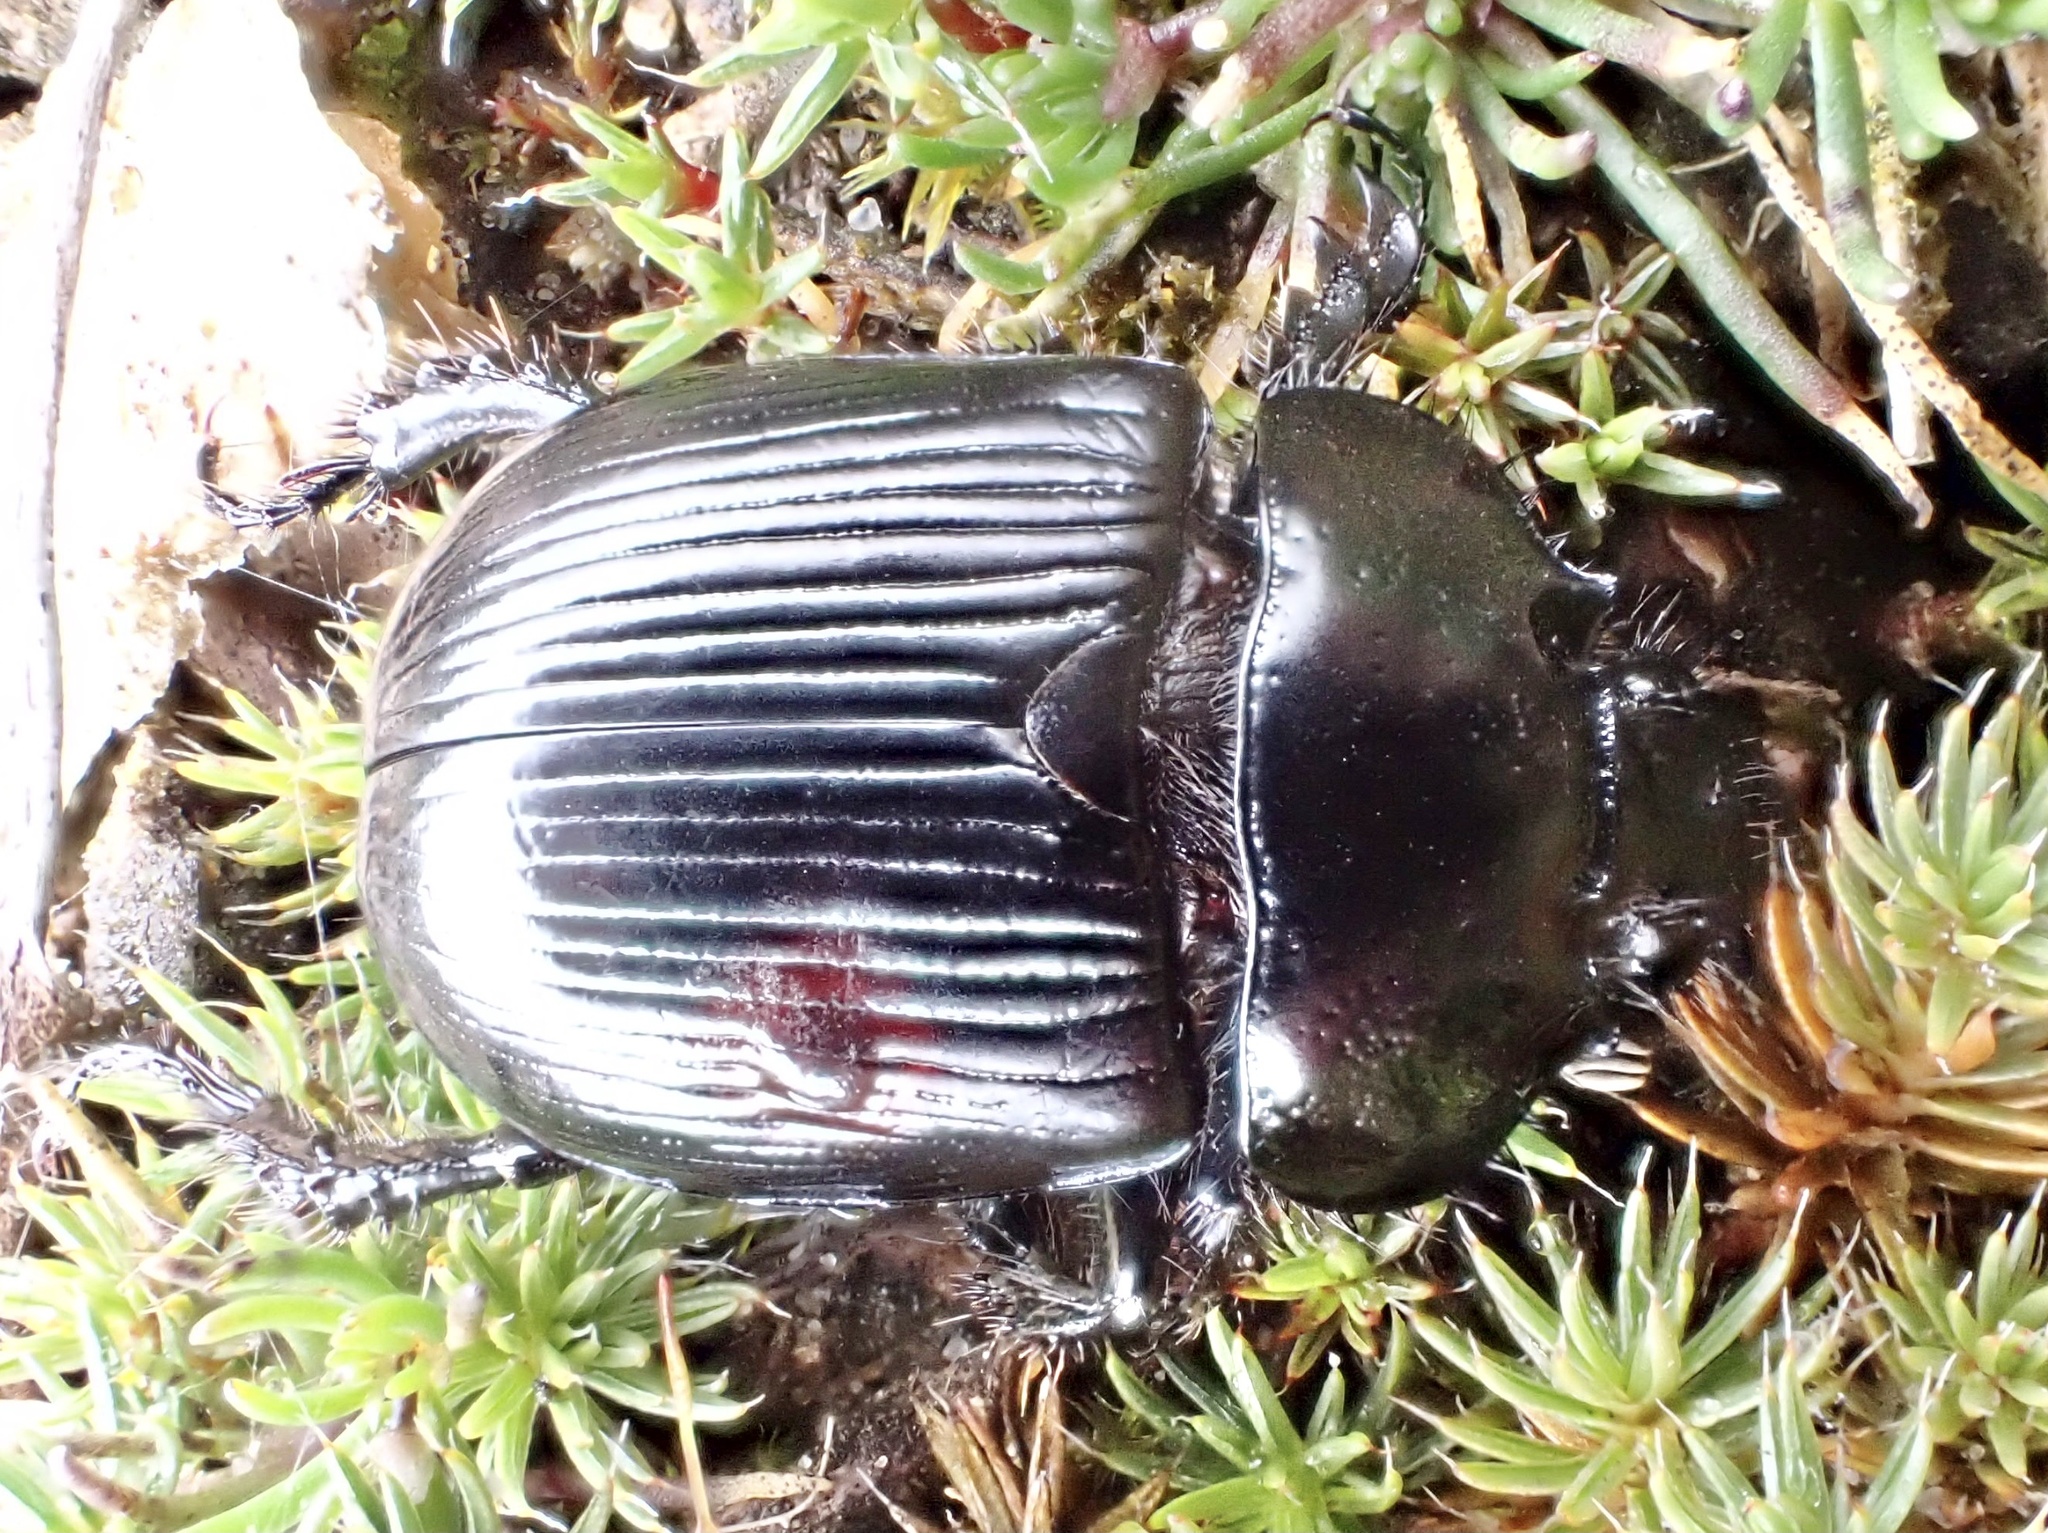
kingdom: Animalia
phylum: Arthropoda
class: Insecta
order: Coleoptera
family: Geotrupidae
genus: Typhaeus
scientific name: Typhaeus typhoeus
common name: Minotaur beetle
